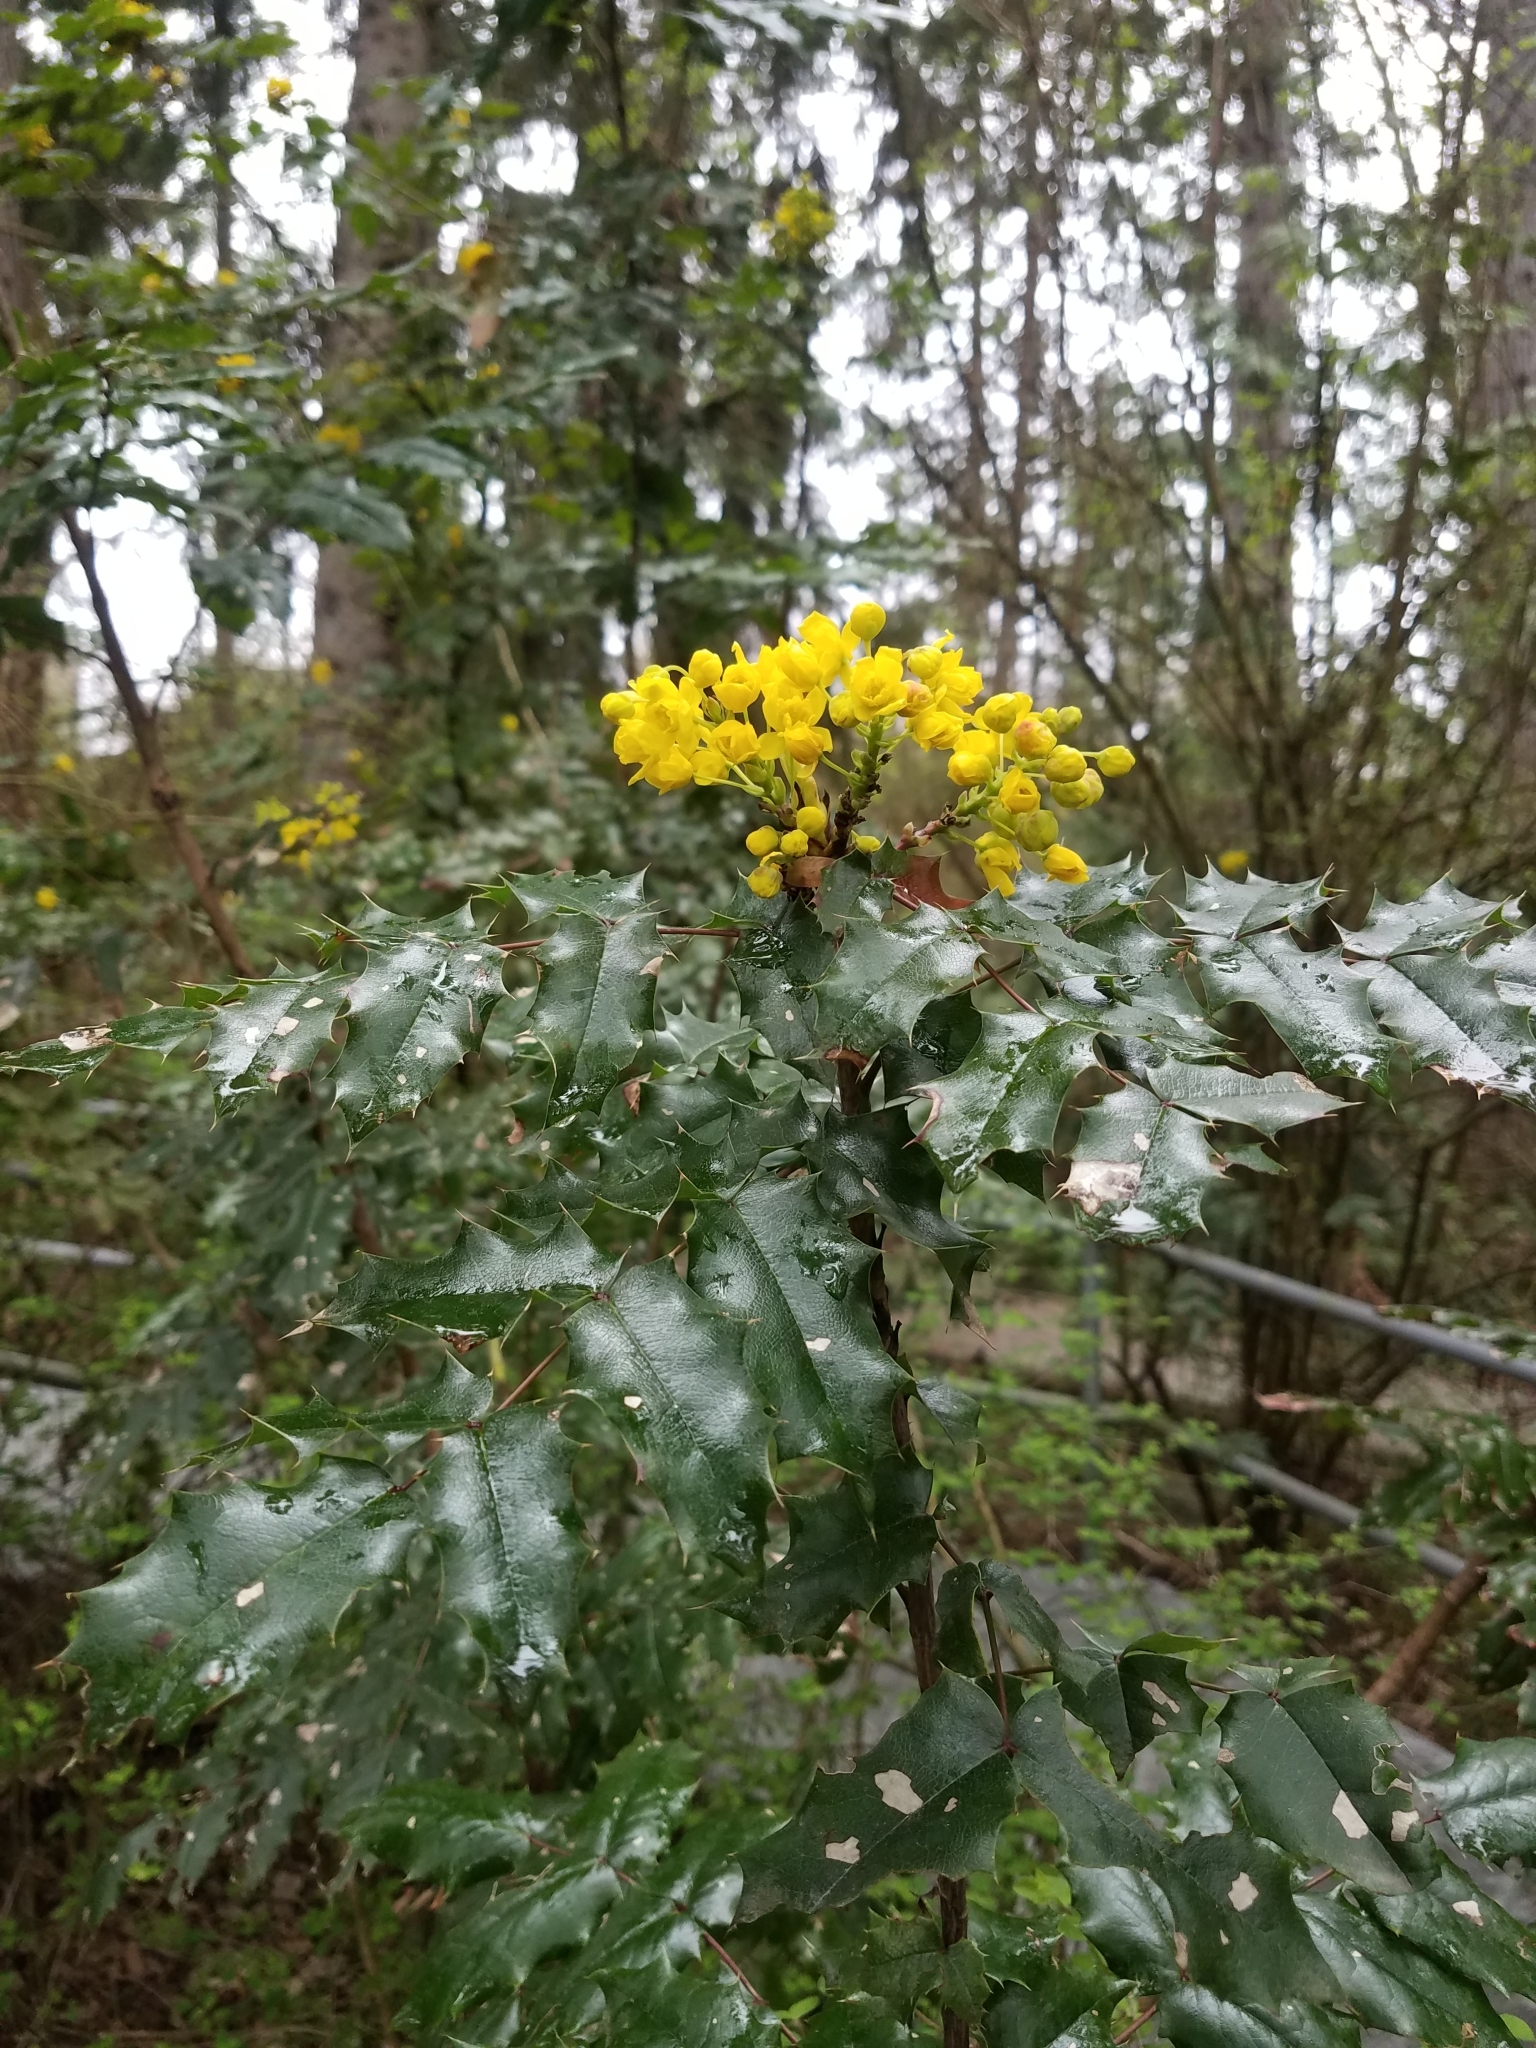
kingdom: Plantae
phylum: Tracheophyta
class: Magnoliopsida
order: Ranunculales
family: Berberidaceae
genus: Mahonia
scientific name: Mahonia aquifolium
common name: Oregon-grape
